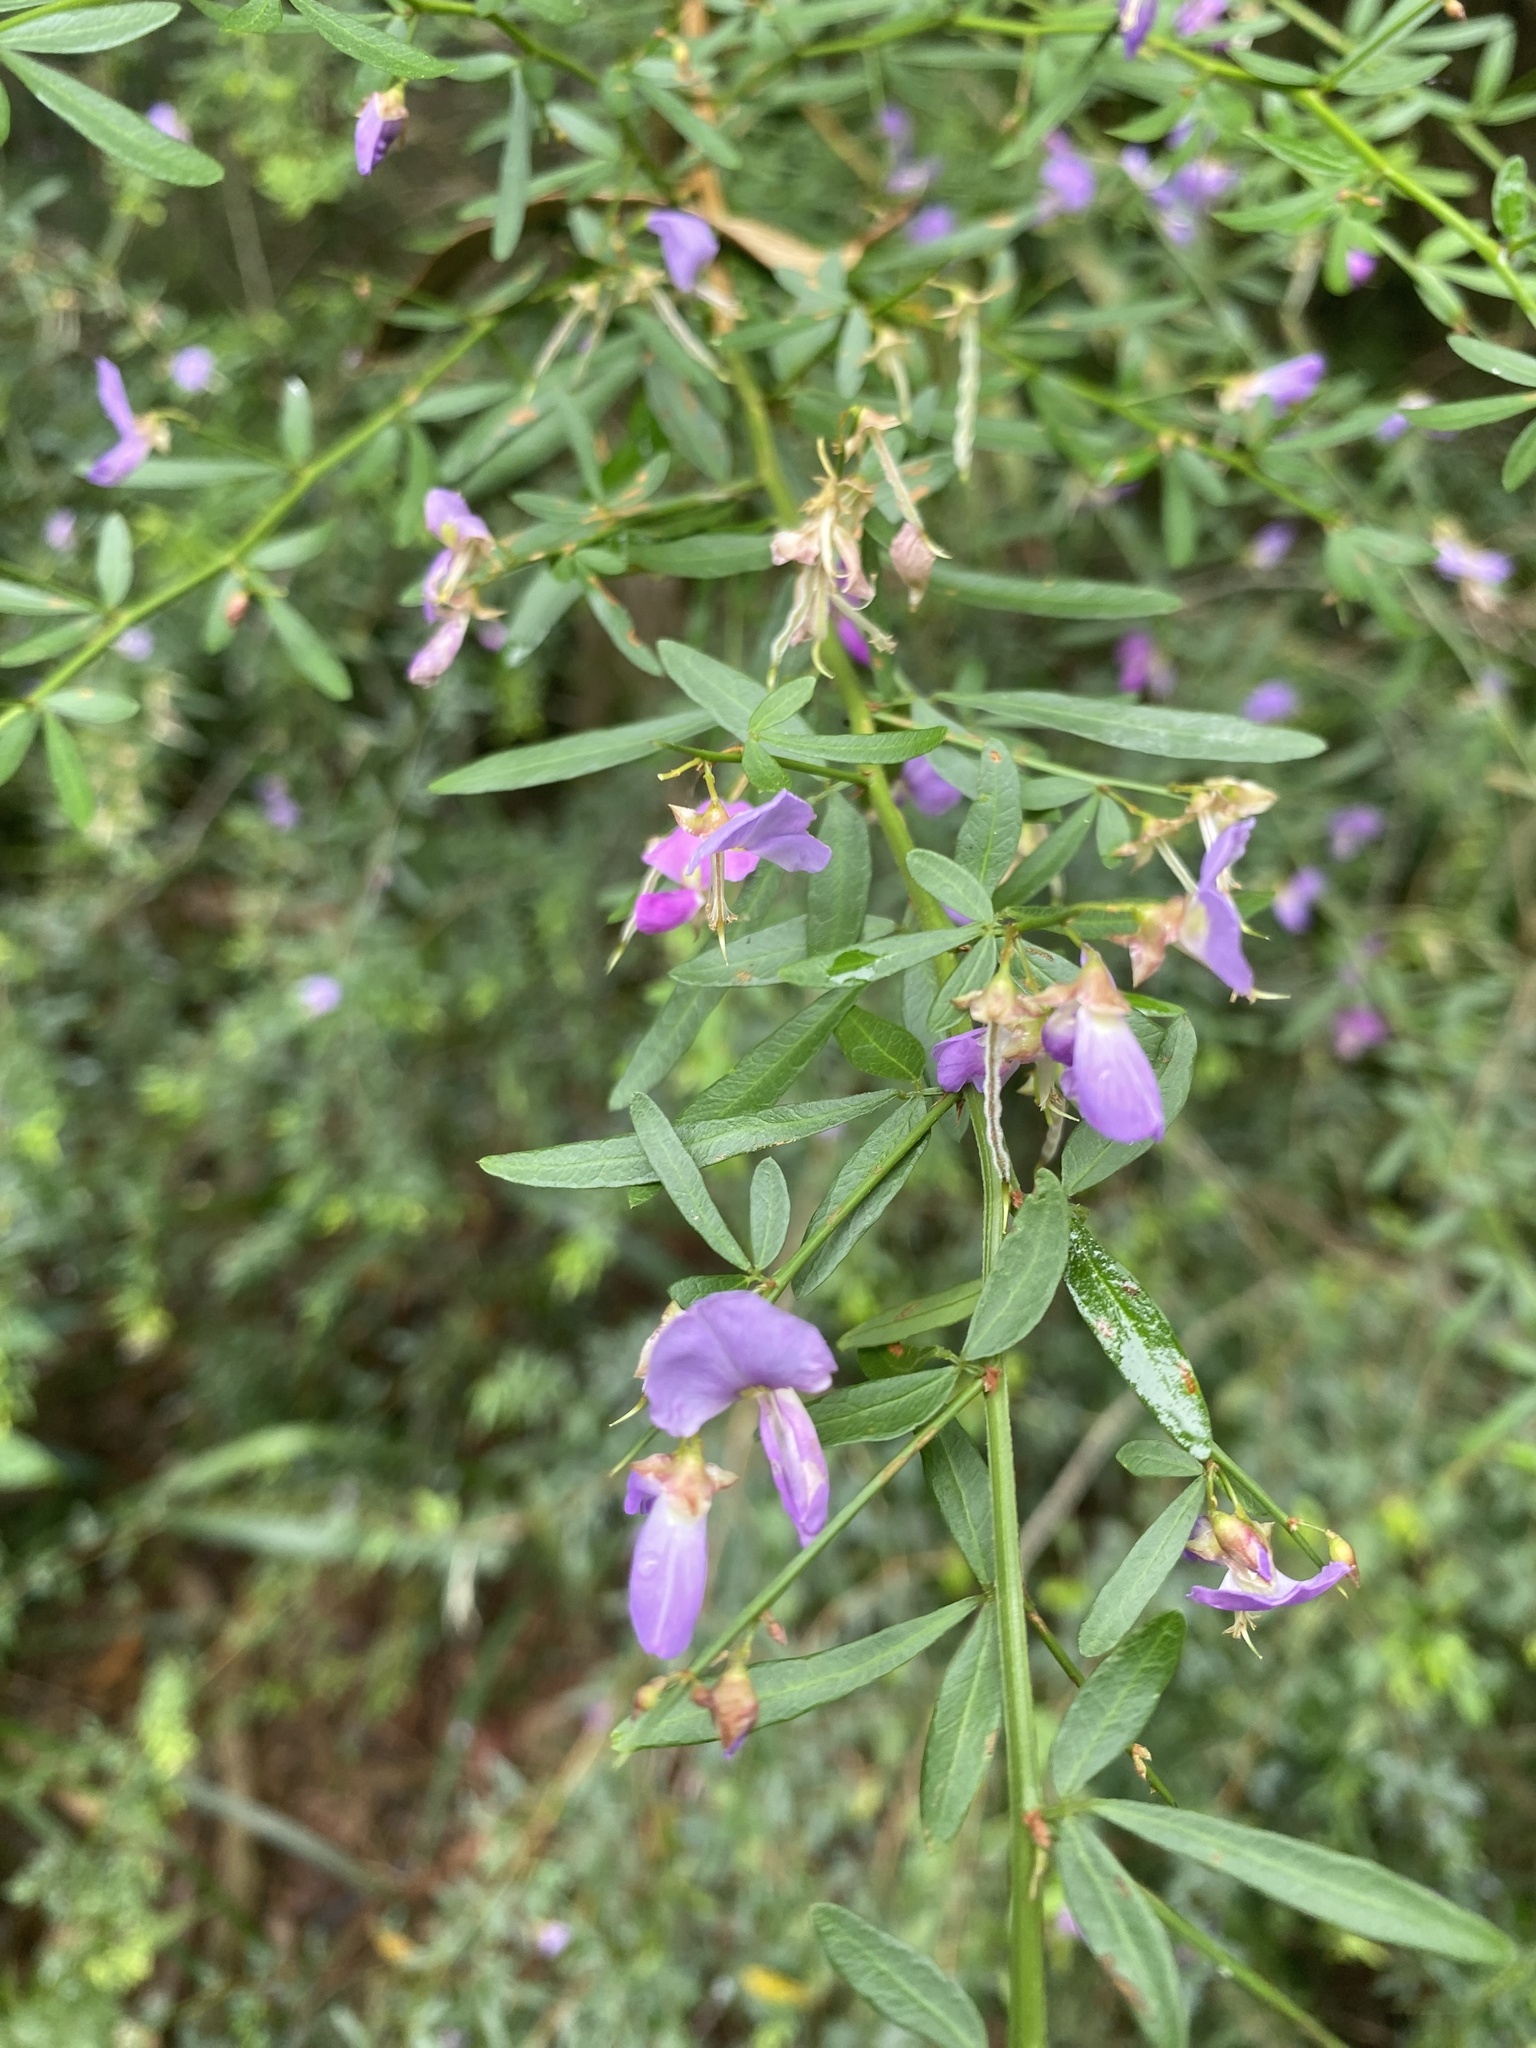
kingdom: Plantae
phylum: Tracheophyta
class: Magnoliopsida
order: Fabales
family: Fabaceae
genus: Pedleya
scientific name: Pedleya acanthoclada
